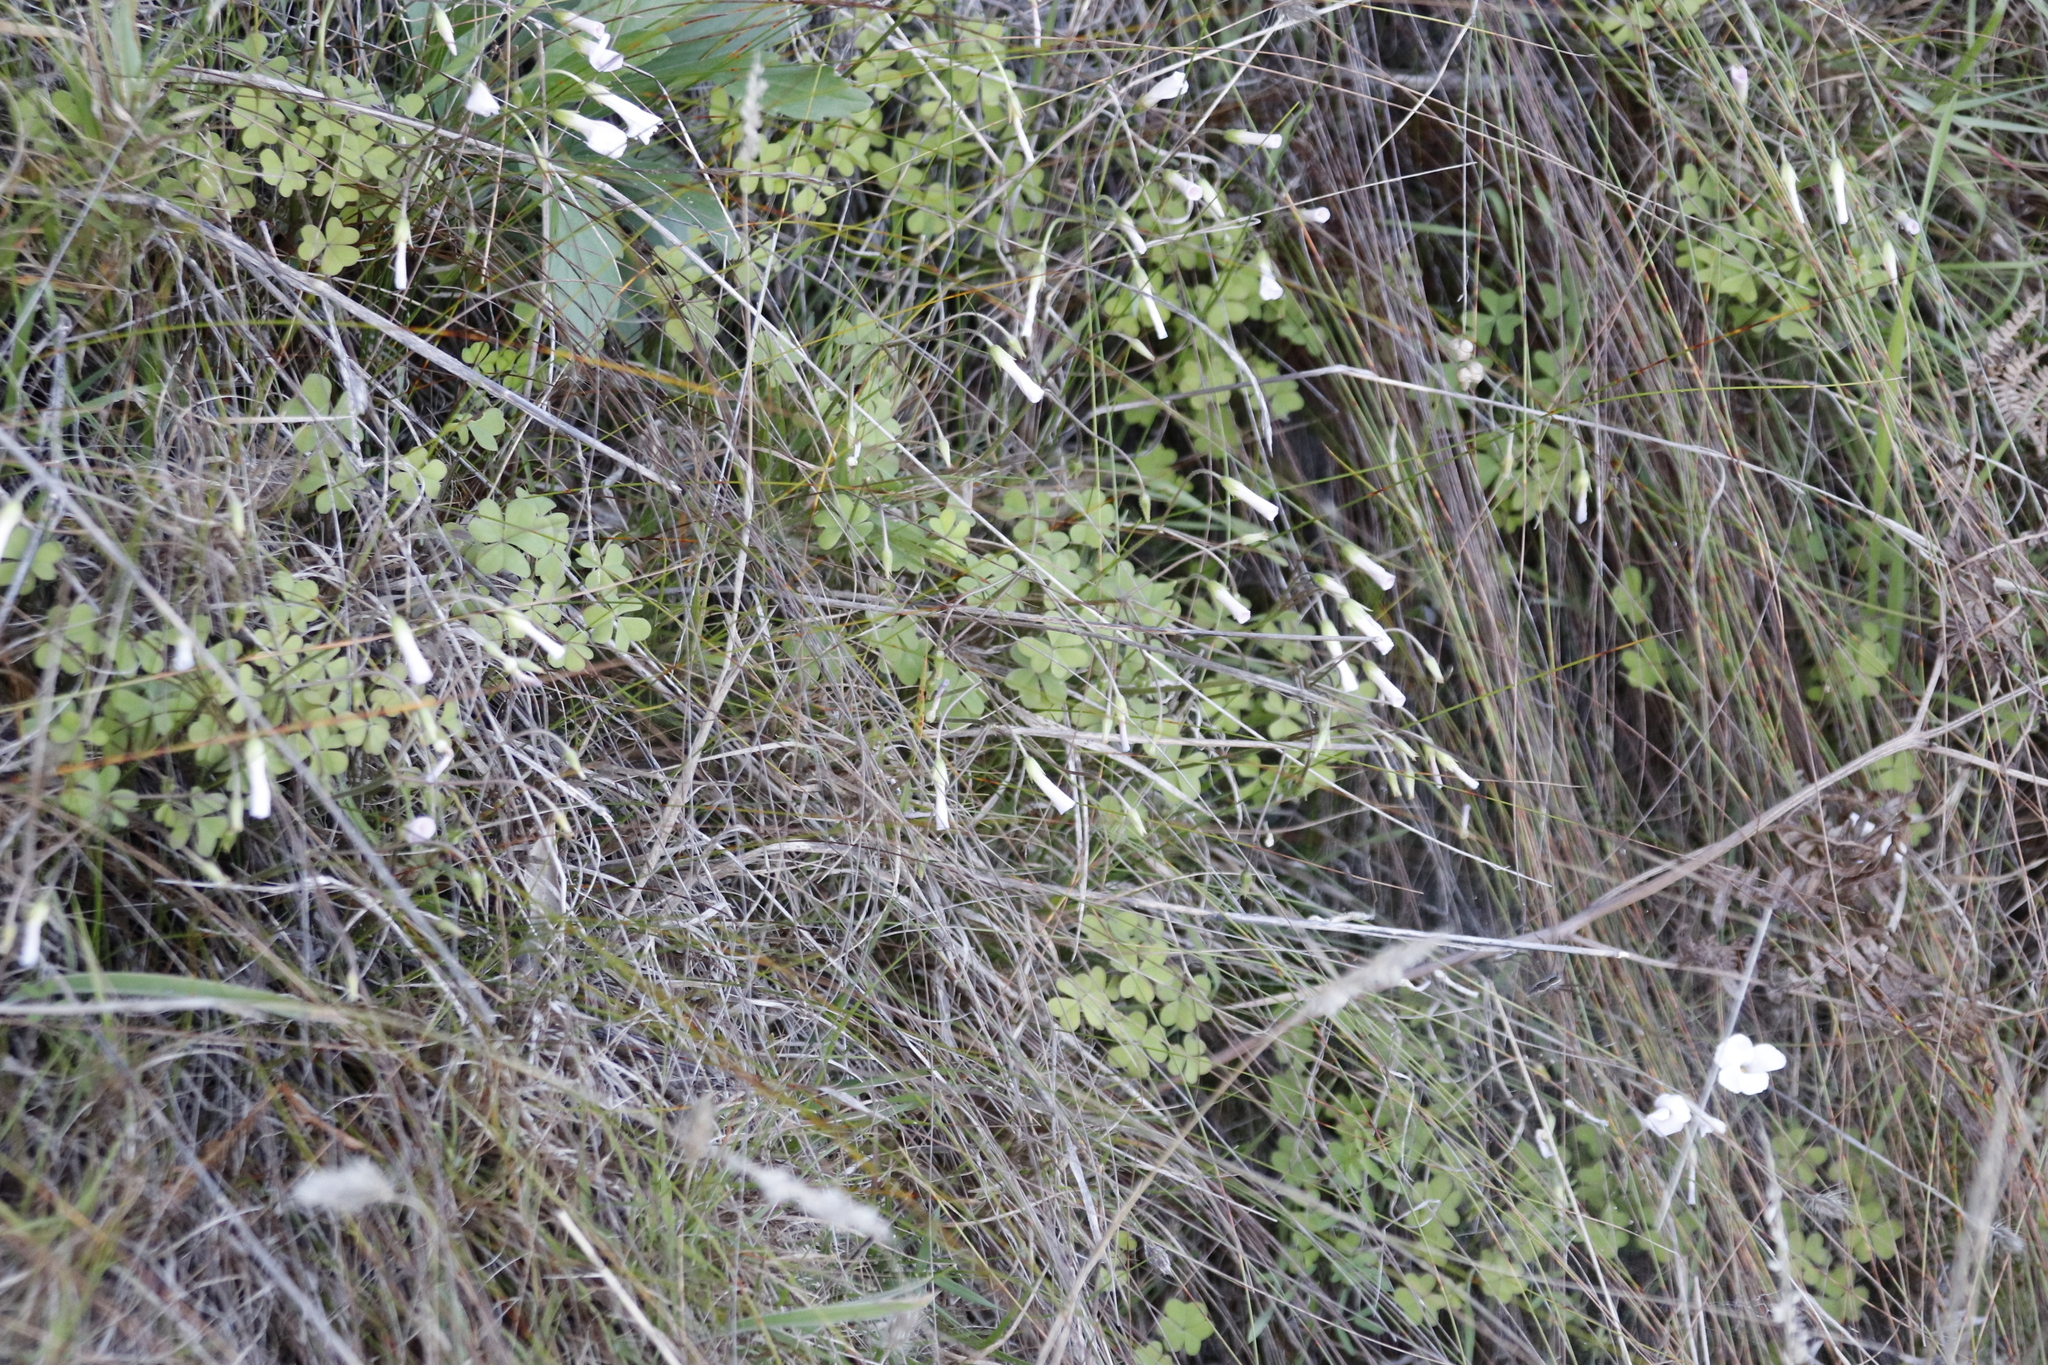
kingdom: Plantae
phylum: Tracheophyta
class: Magnoliopsida
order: Oxalidales
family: Oxalidaceae
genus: Oxalis
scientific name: Oxalis
